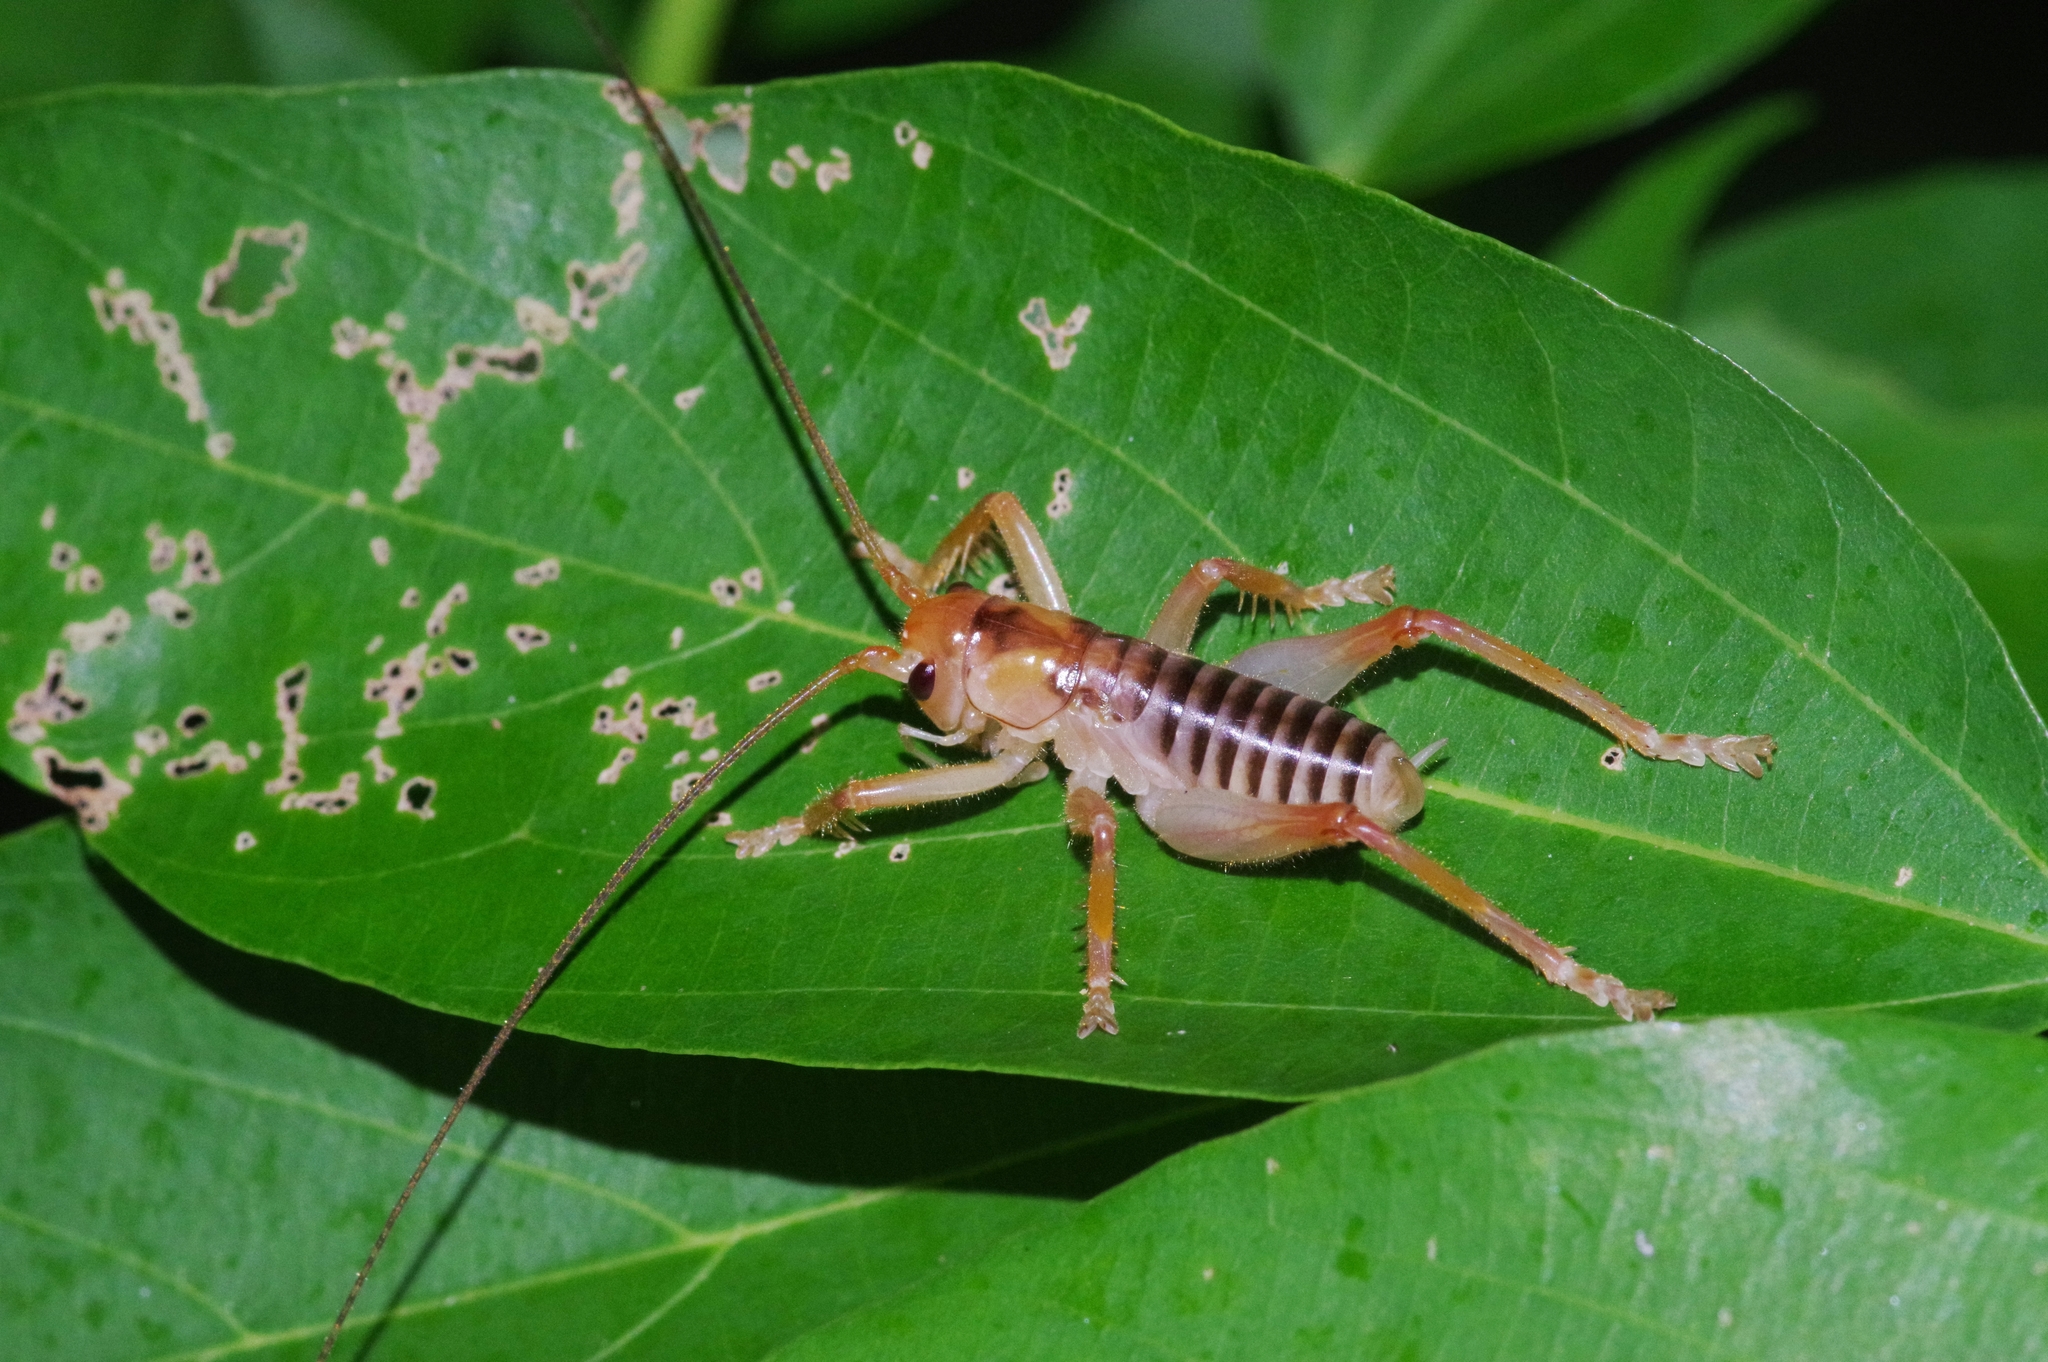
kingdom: Animalia
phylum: Arthropoda
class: Insecta
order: Orthoptera
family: Gryllacrididae
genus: Metriogryllacris
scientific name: Metriogryllacris magna
